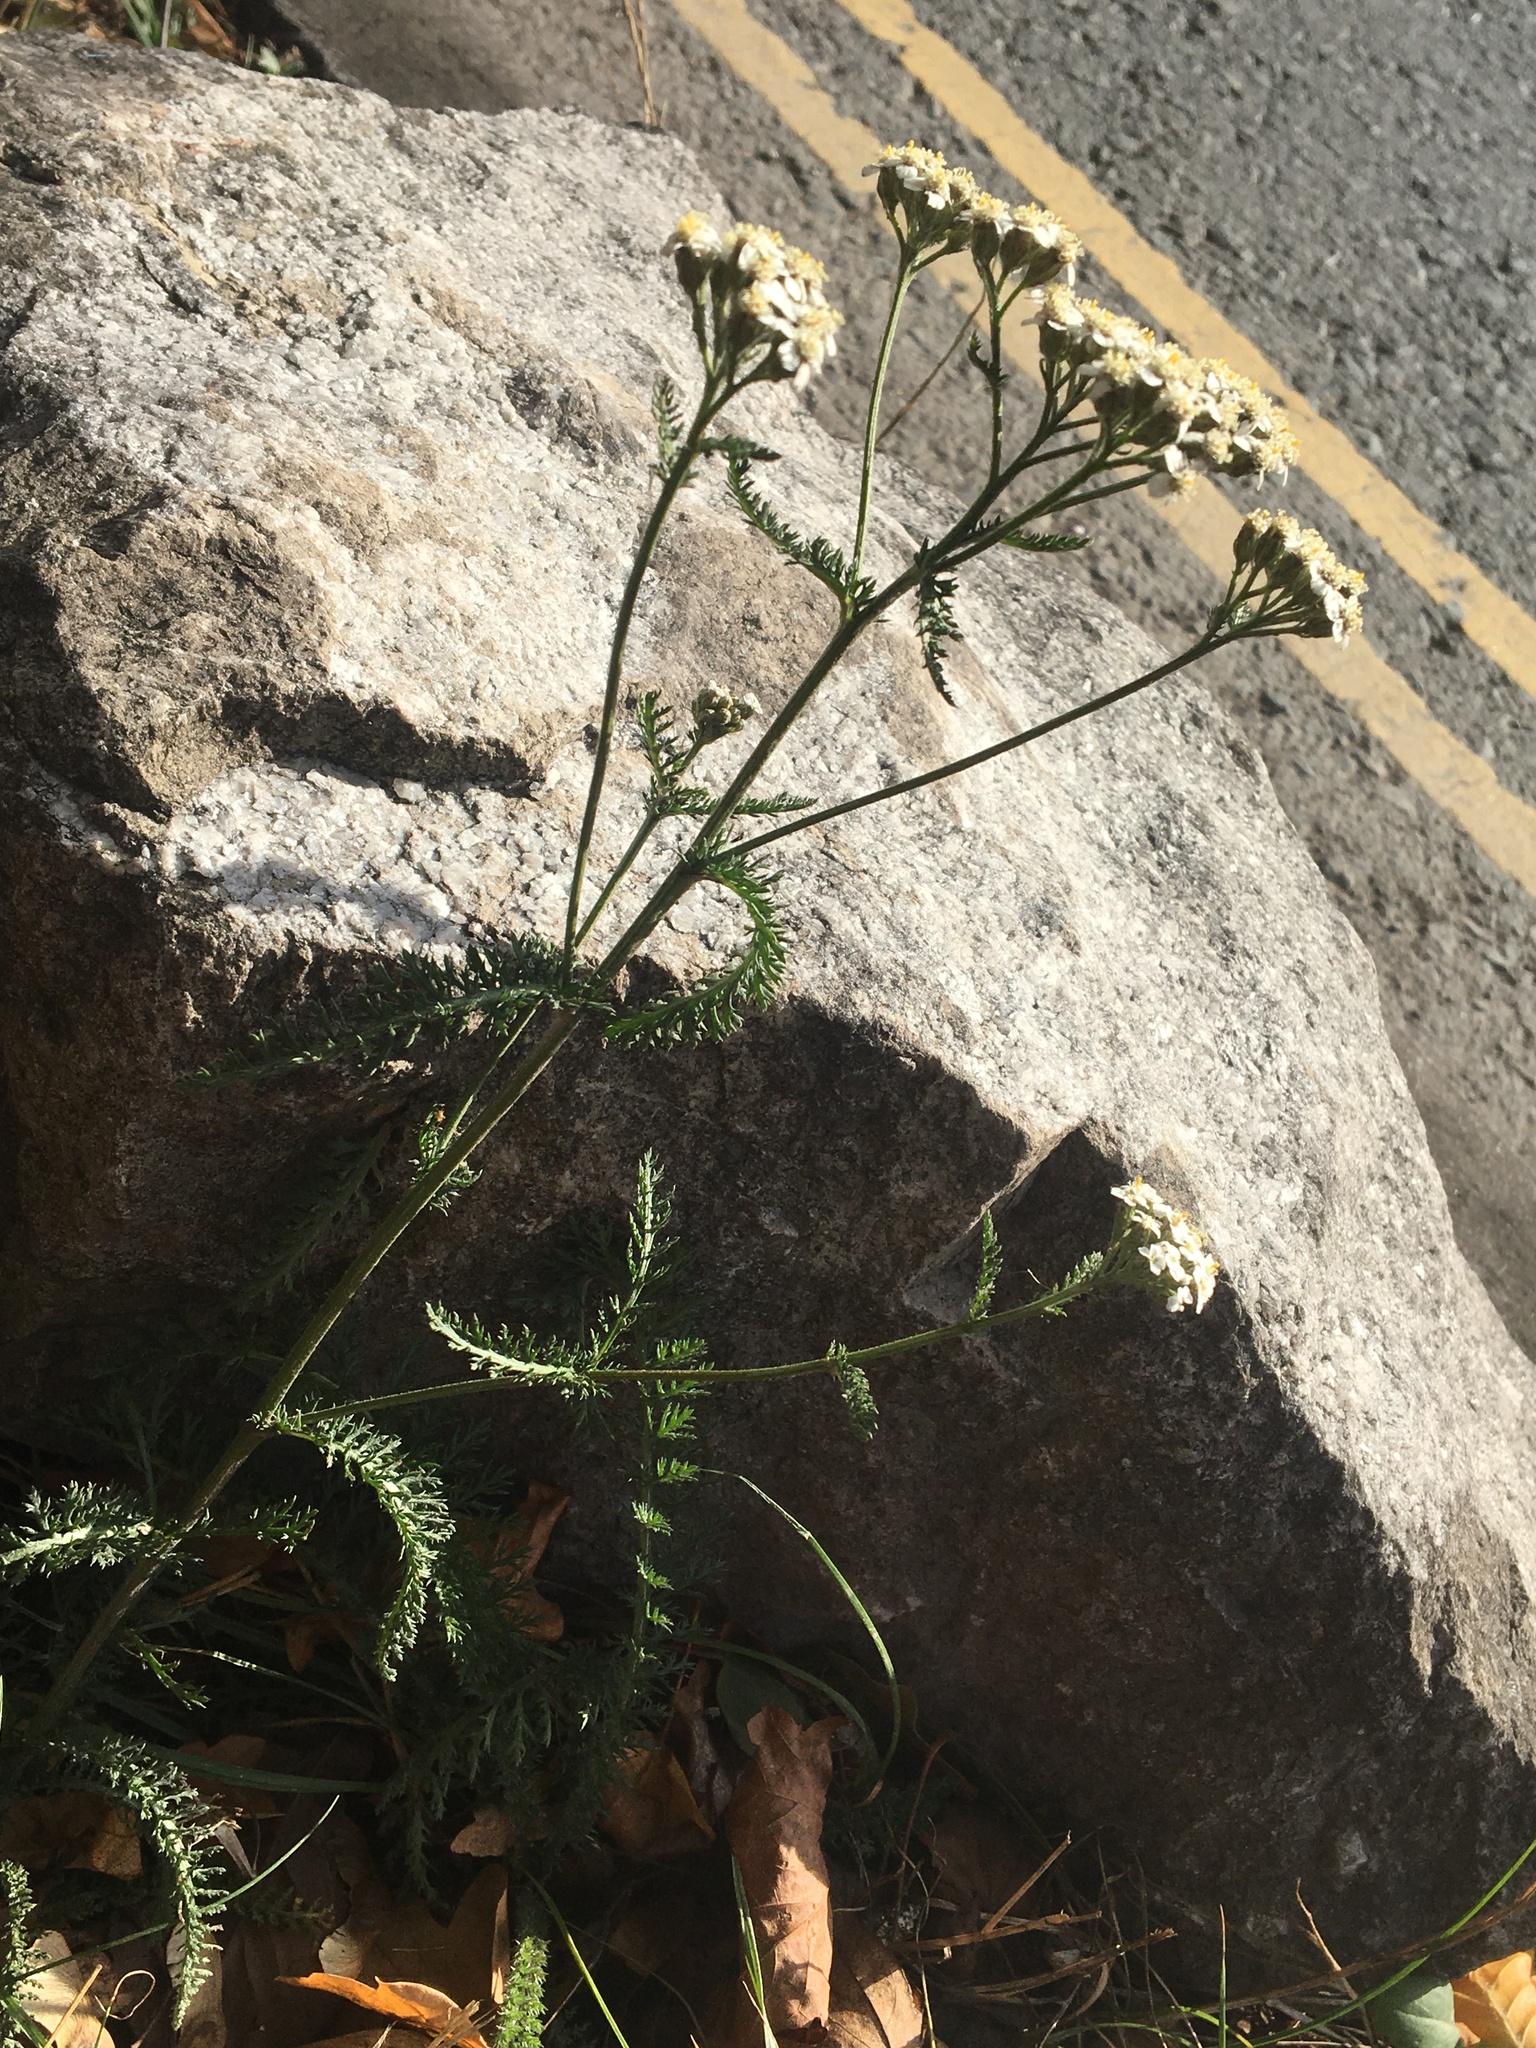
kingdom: Plantae
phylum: Tracheophyta
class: Magnoliopsida
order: Asterales
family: Asteraceae
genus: Achillea
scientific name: Achillea millefolium
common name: Yarrow
